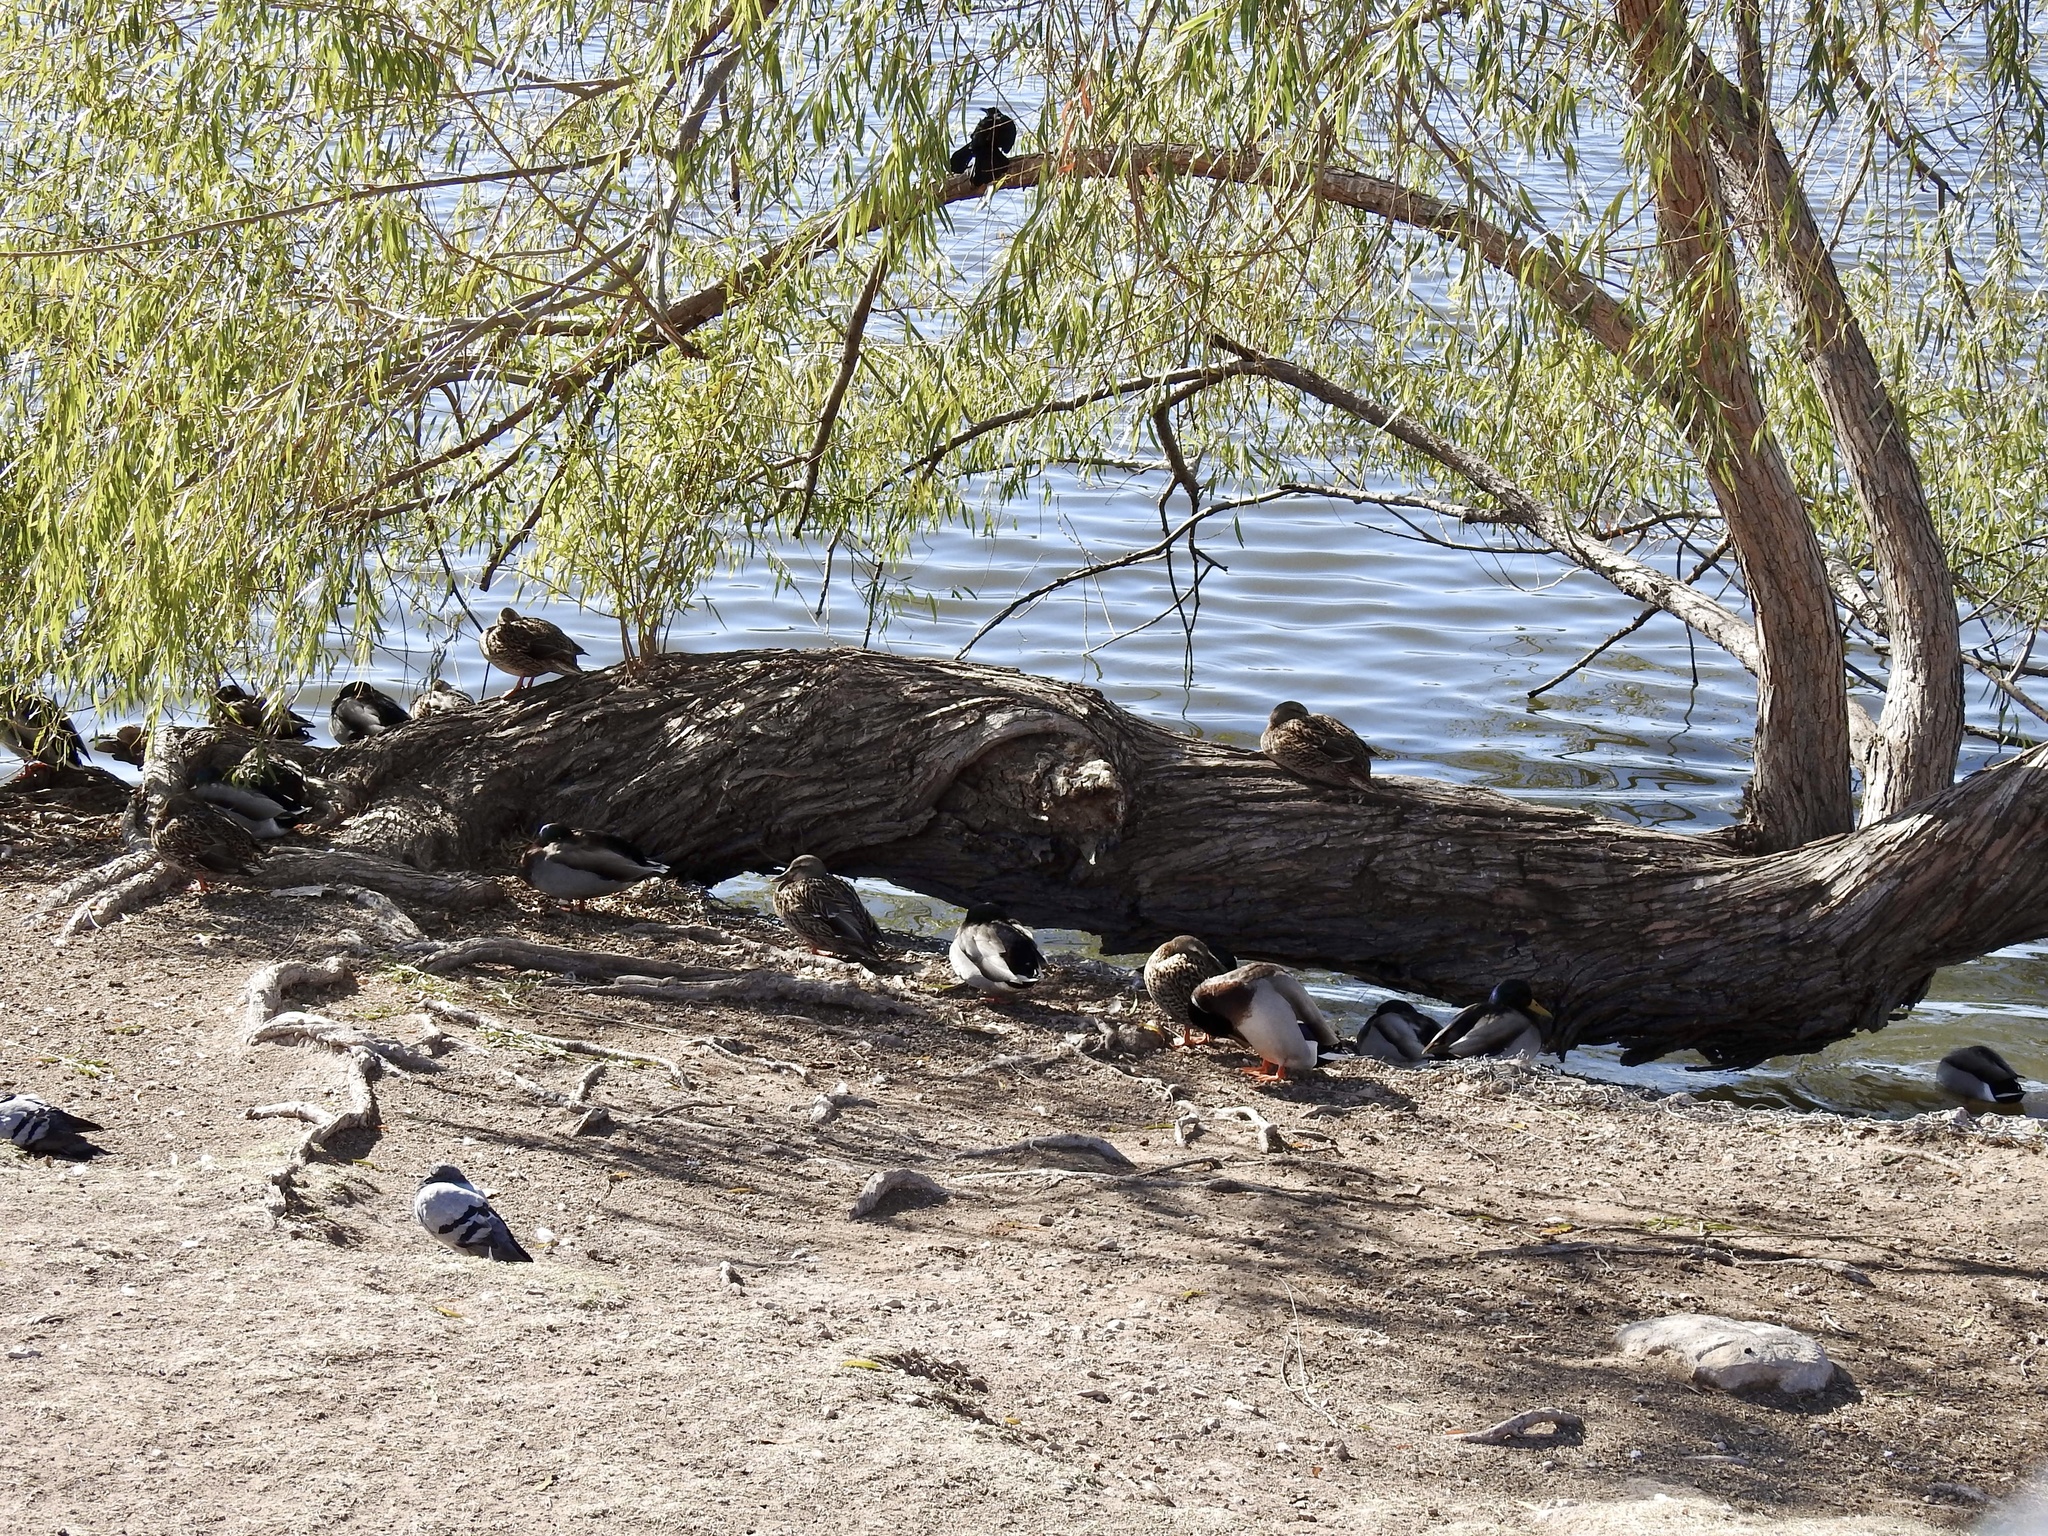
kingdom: Animalia
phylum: Chordata
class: Aves
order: Anseriformes
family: Anatidae
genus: Anas
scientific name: Anas platyrhynchos
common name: Mallard
